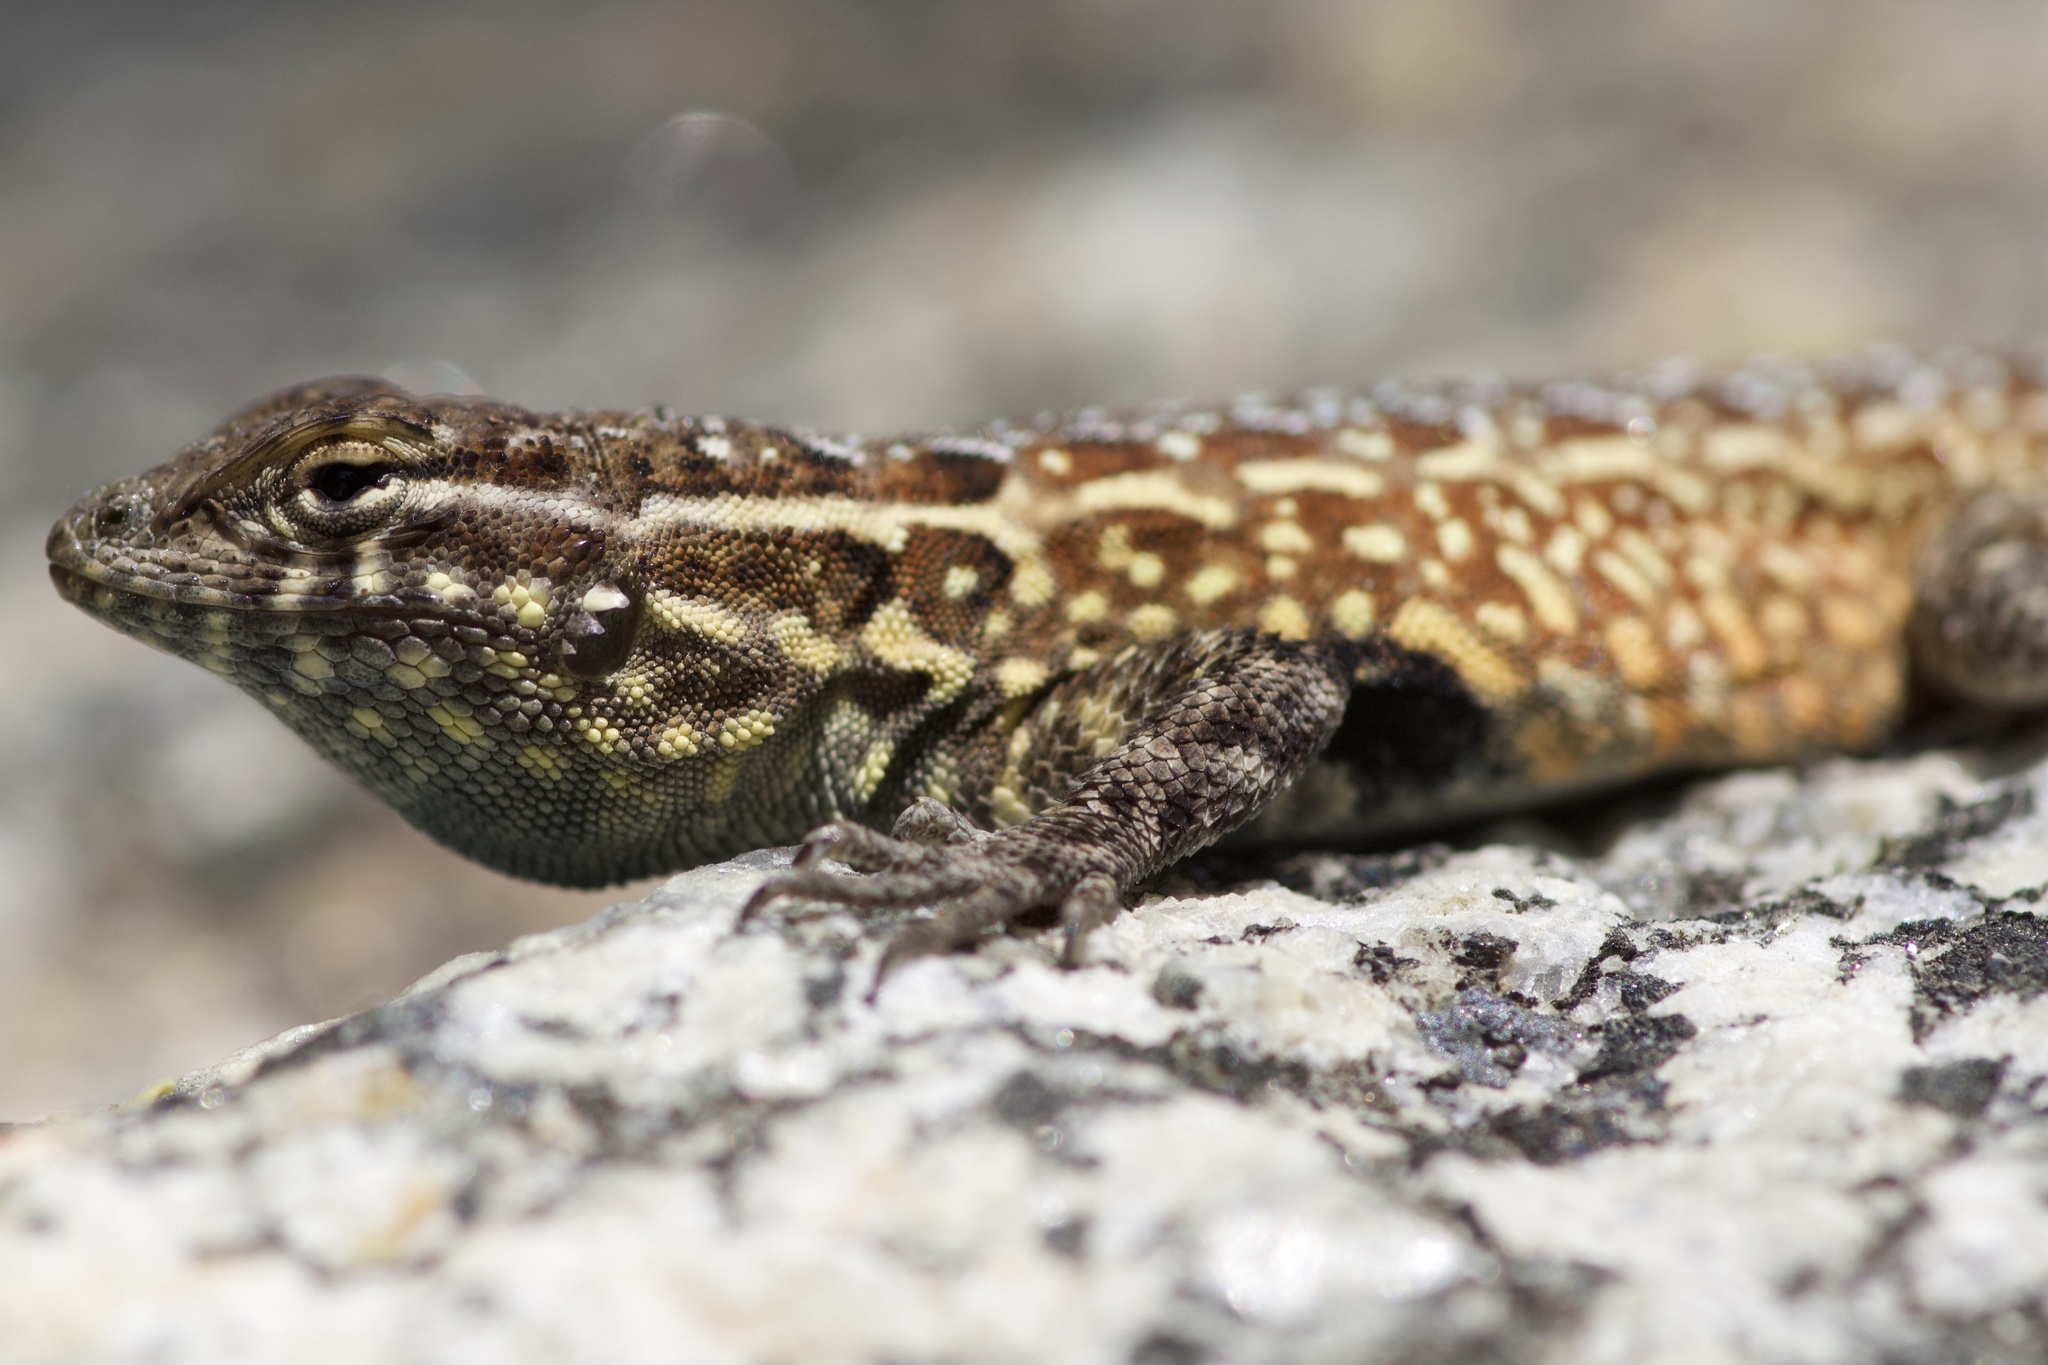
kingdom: Animalia
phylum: Chordata
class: Squamata
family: Phrynosomatidae
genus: Uta
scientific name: Uta stansburiana
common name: Side-blotched lizard
